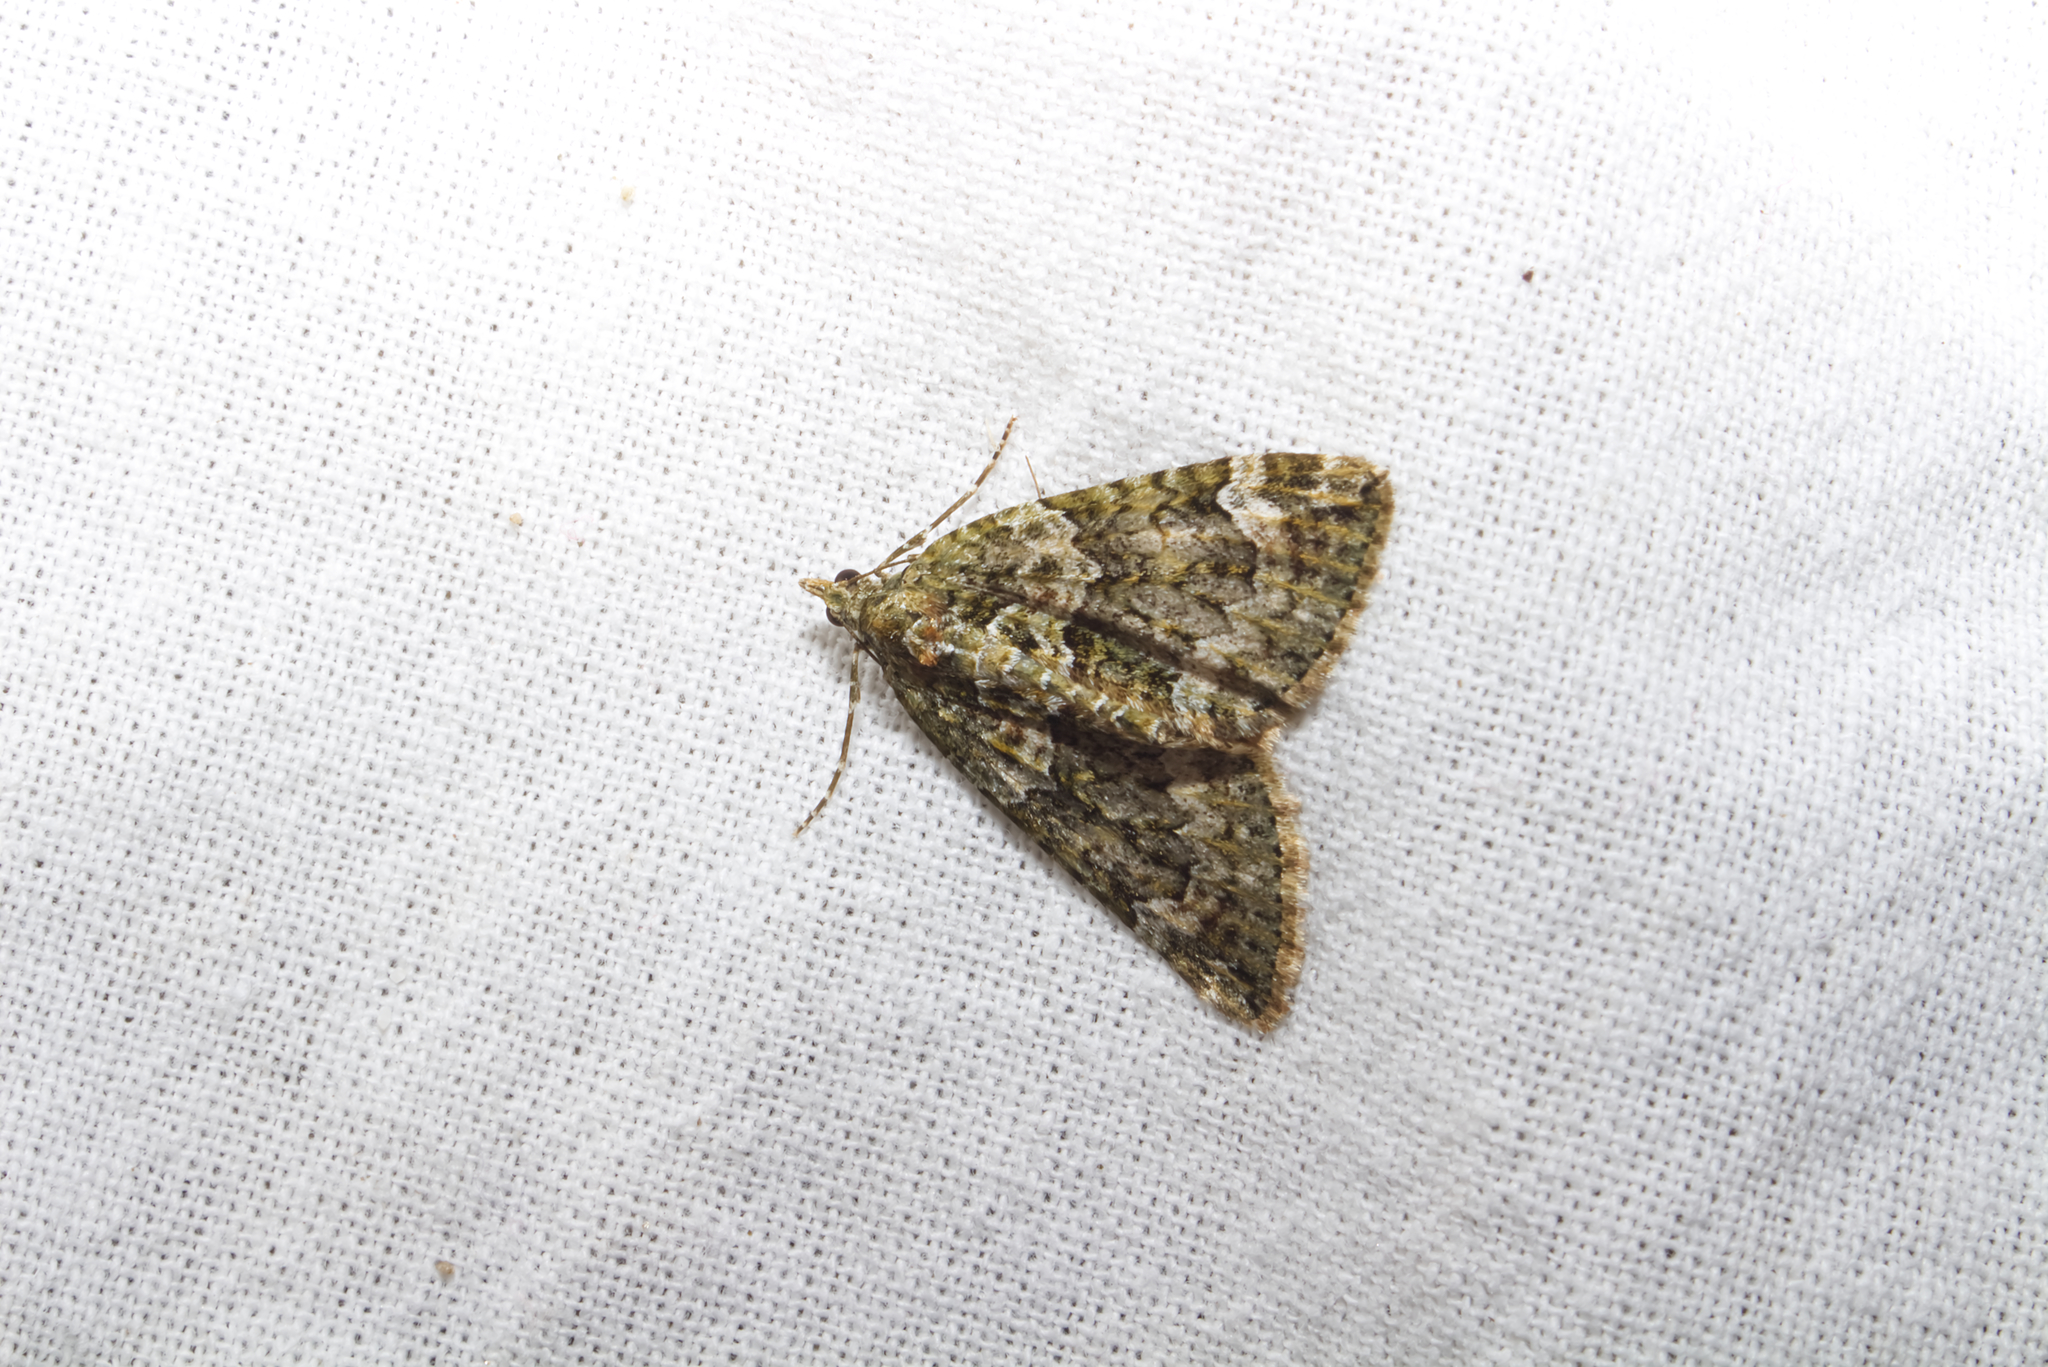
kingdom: Animalia
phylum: Arthropoda
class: Insecta
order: Lepidoptera
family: Geometridae
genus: Chloroclysta
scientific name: Chloroclysta siterata
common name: Red-green carpet
